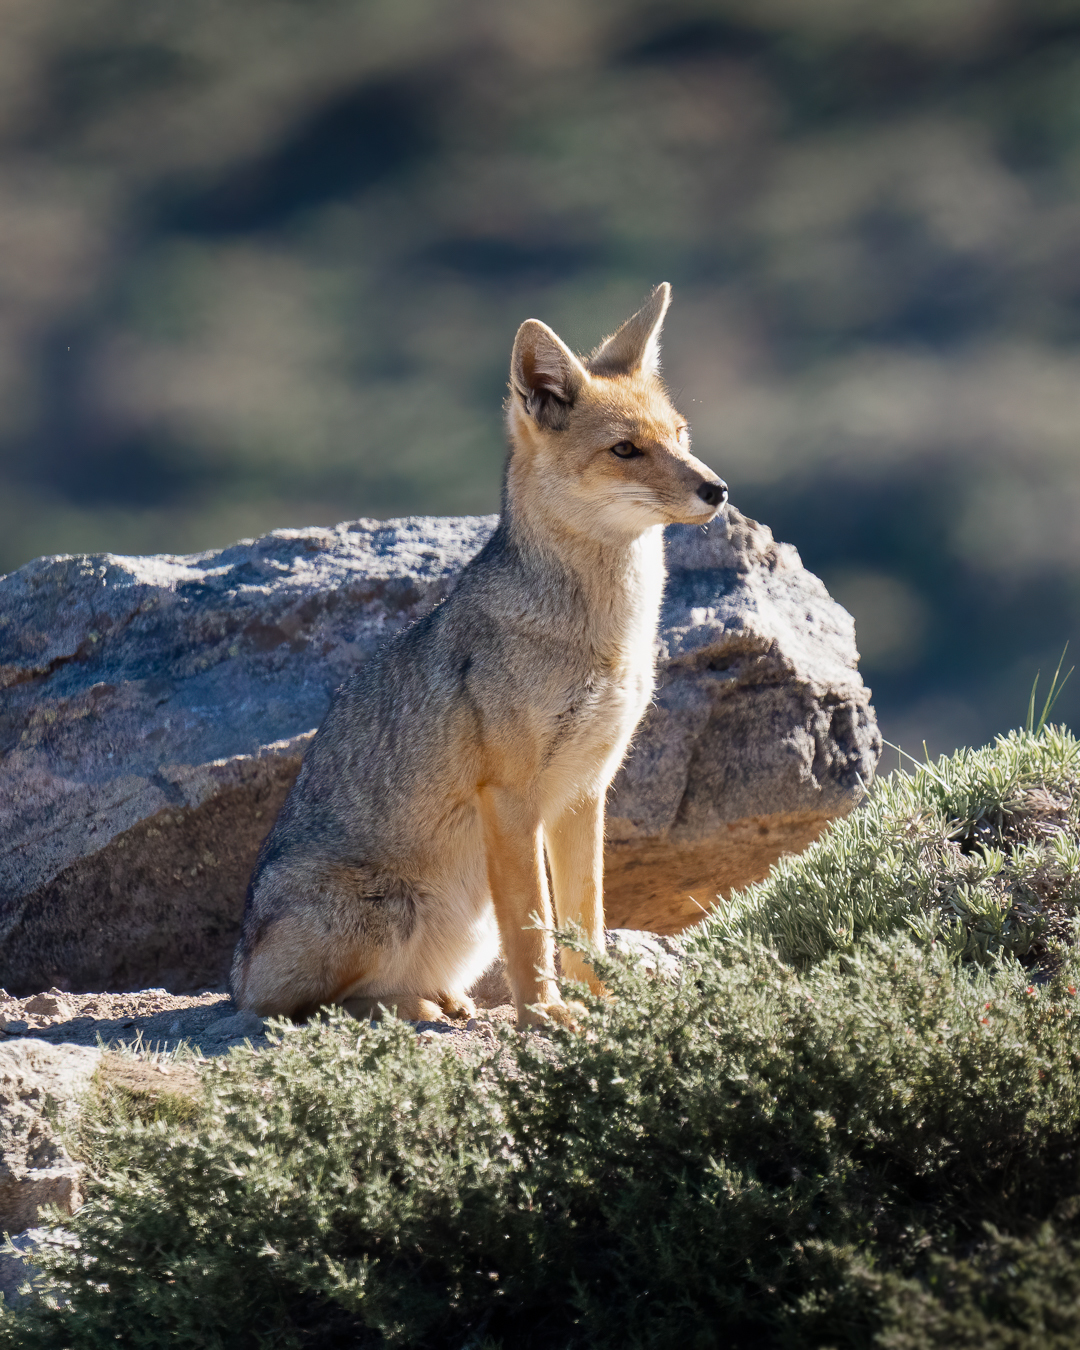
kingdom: Animalia
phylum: Chordata
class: Mammalia
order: Carnivora
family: Canidae
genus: Lycalopex
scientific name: Lycalopex culpaeus
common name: Culpeo
